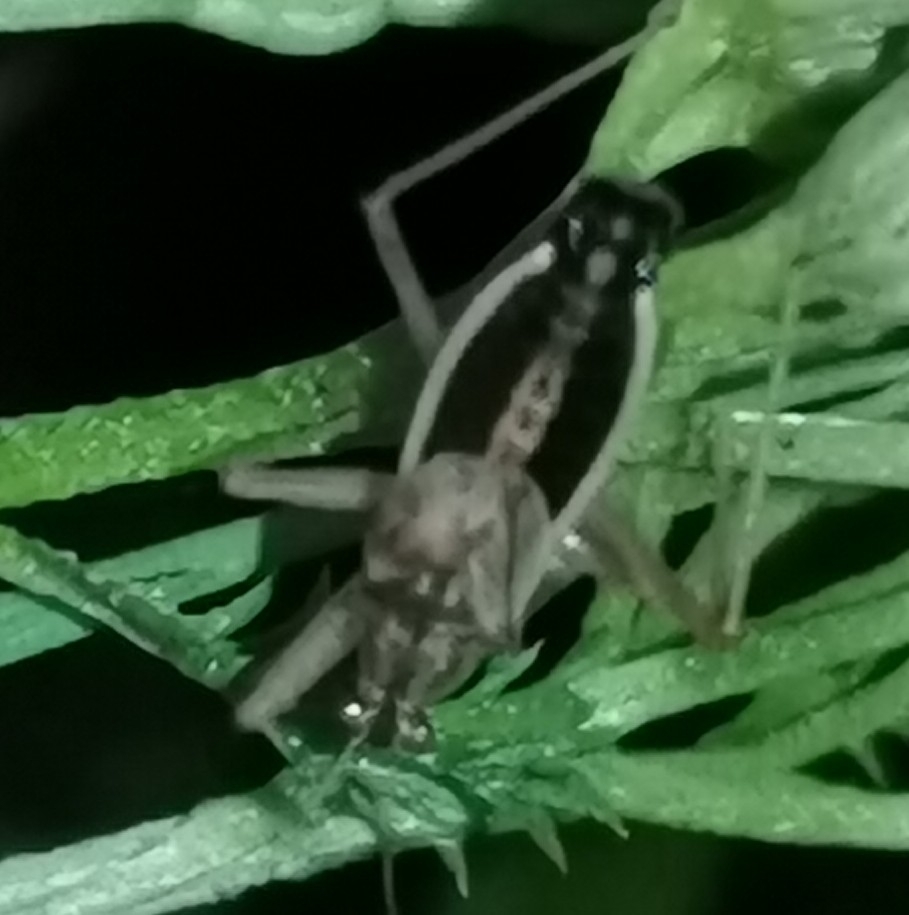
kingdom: Animalia
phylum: Arthropoda
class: Insecta
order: Hemiptera
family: Nabidae
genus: Nabis
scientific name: Nabis flavomarginatus
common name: Broad damselbug
